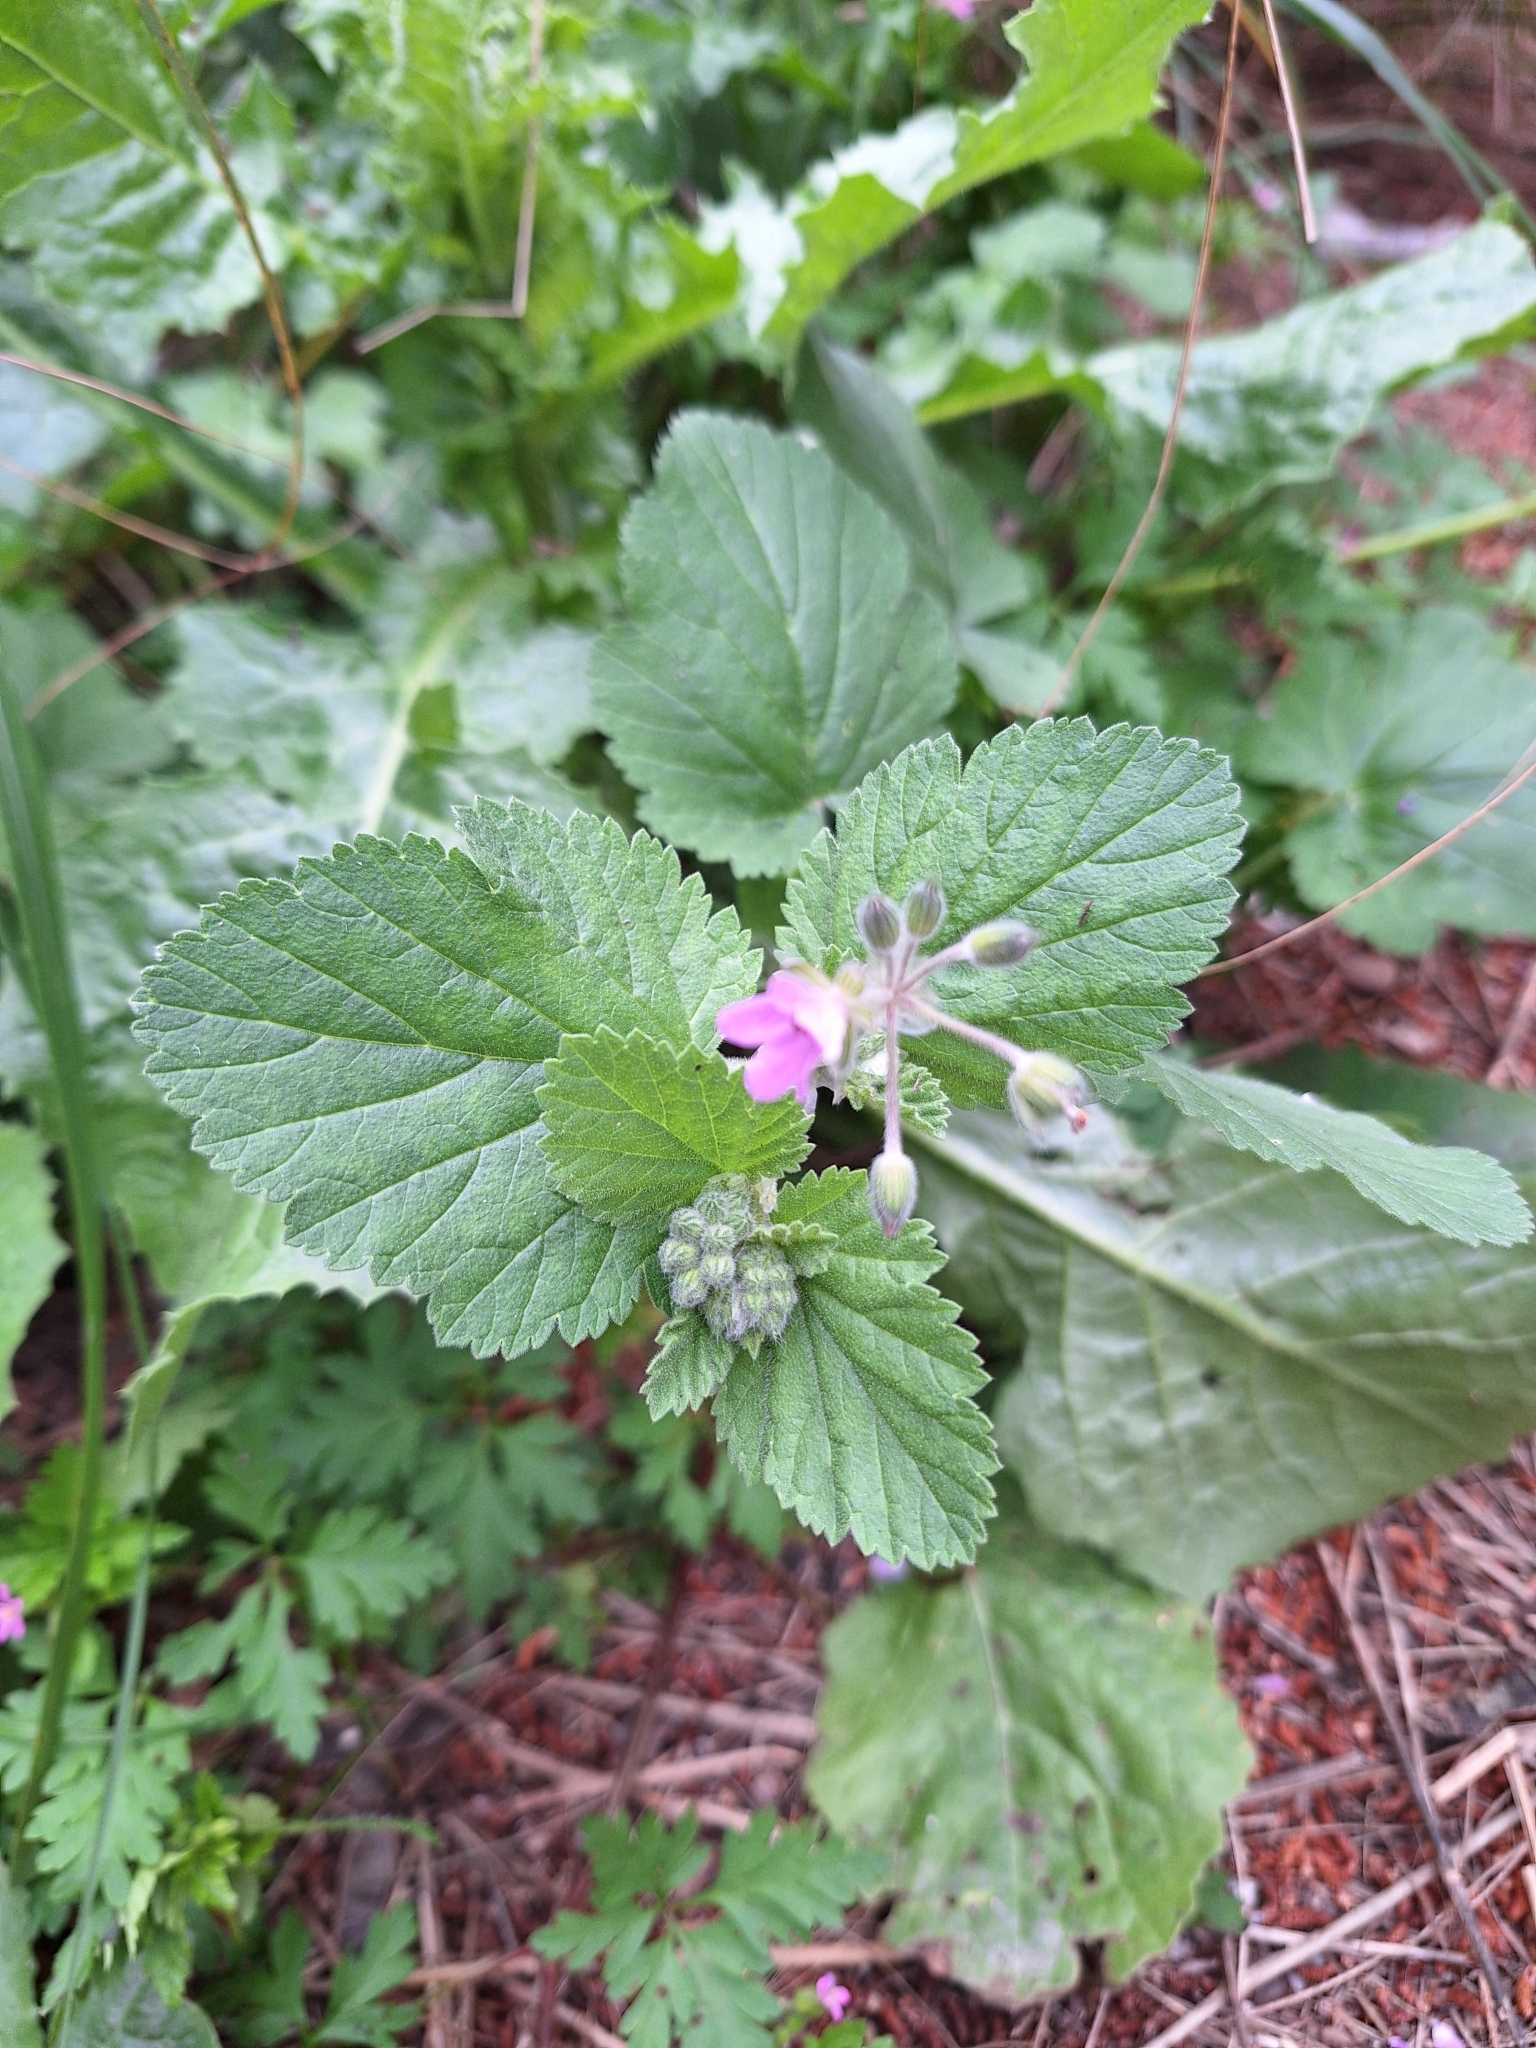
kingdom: Plantae
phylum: Tracheophyta
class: Magnoliopsida
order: Geraniales
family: Geraniaceae
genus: Erodium
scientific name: Erodium malacoides
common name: Soft stork's-bill
